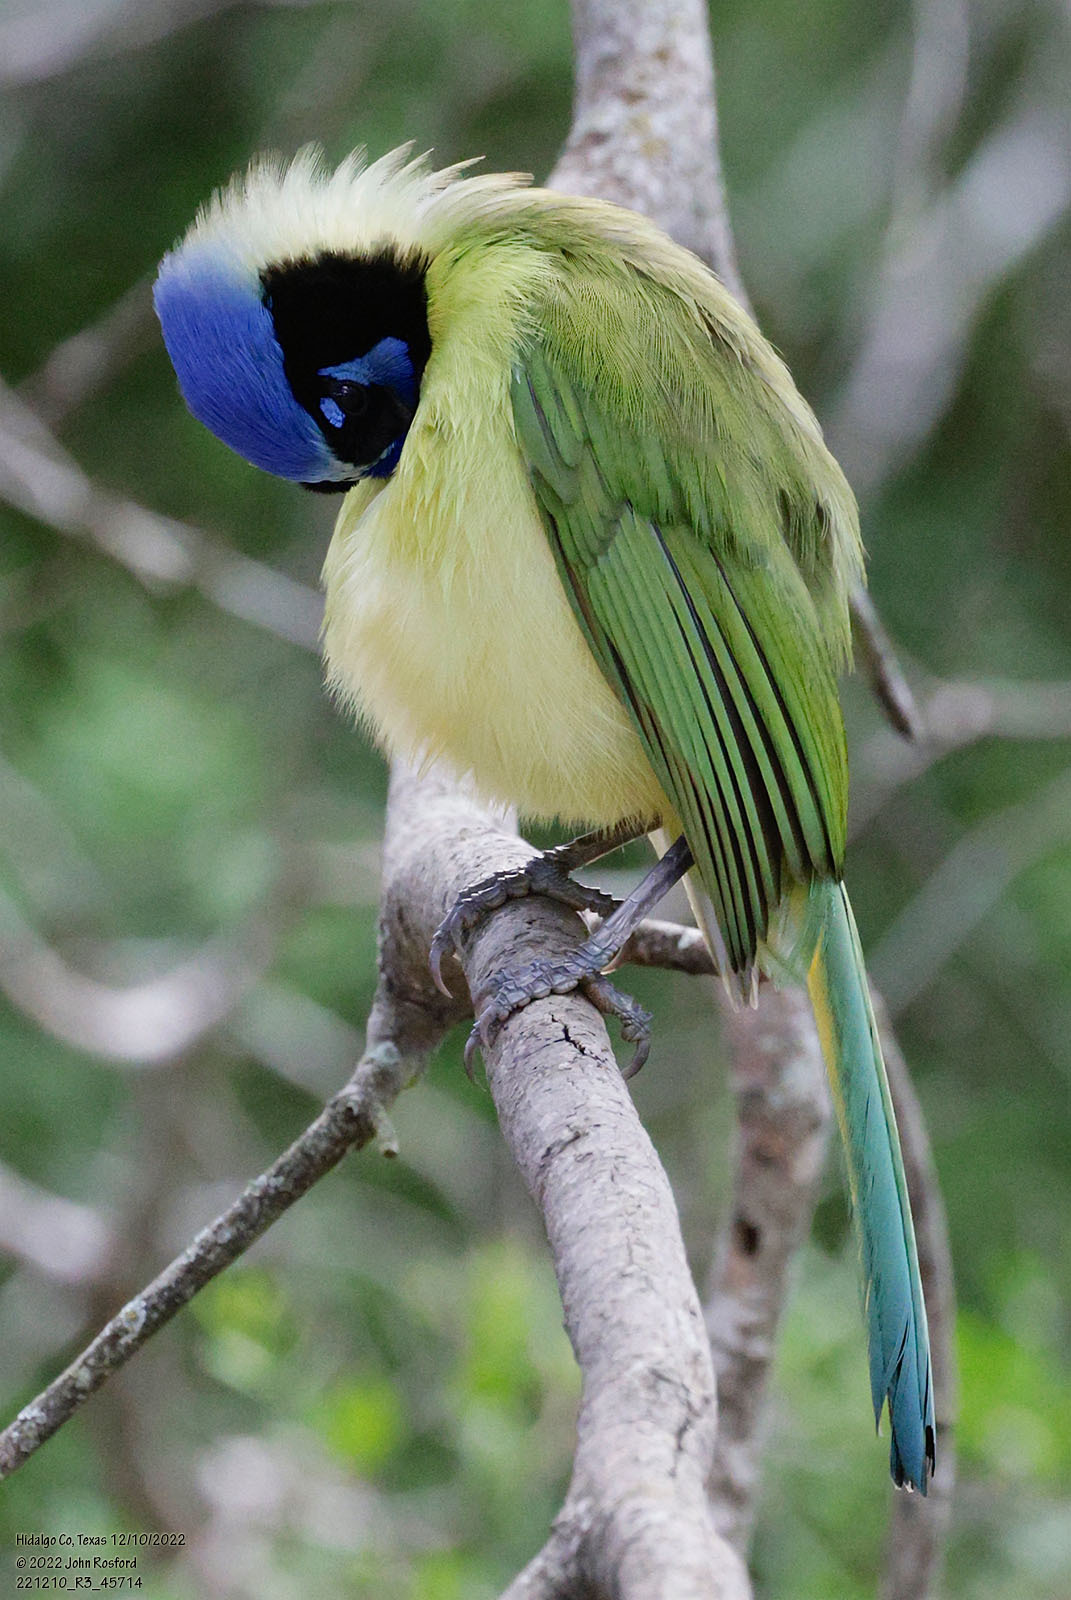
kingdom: Animalia
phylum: Chordata
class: Aves
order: Passeriformes
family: Corvidae
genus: Cyanocorax
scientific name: Cyanocorax yncas
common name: Green jay
